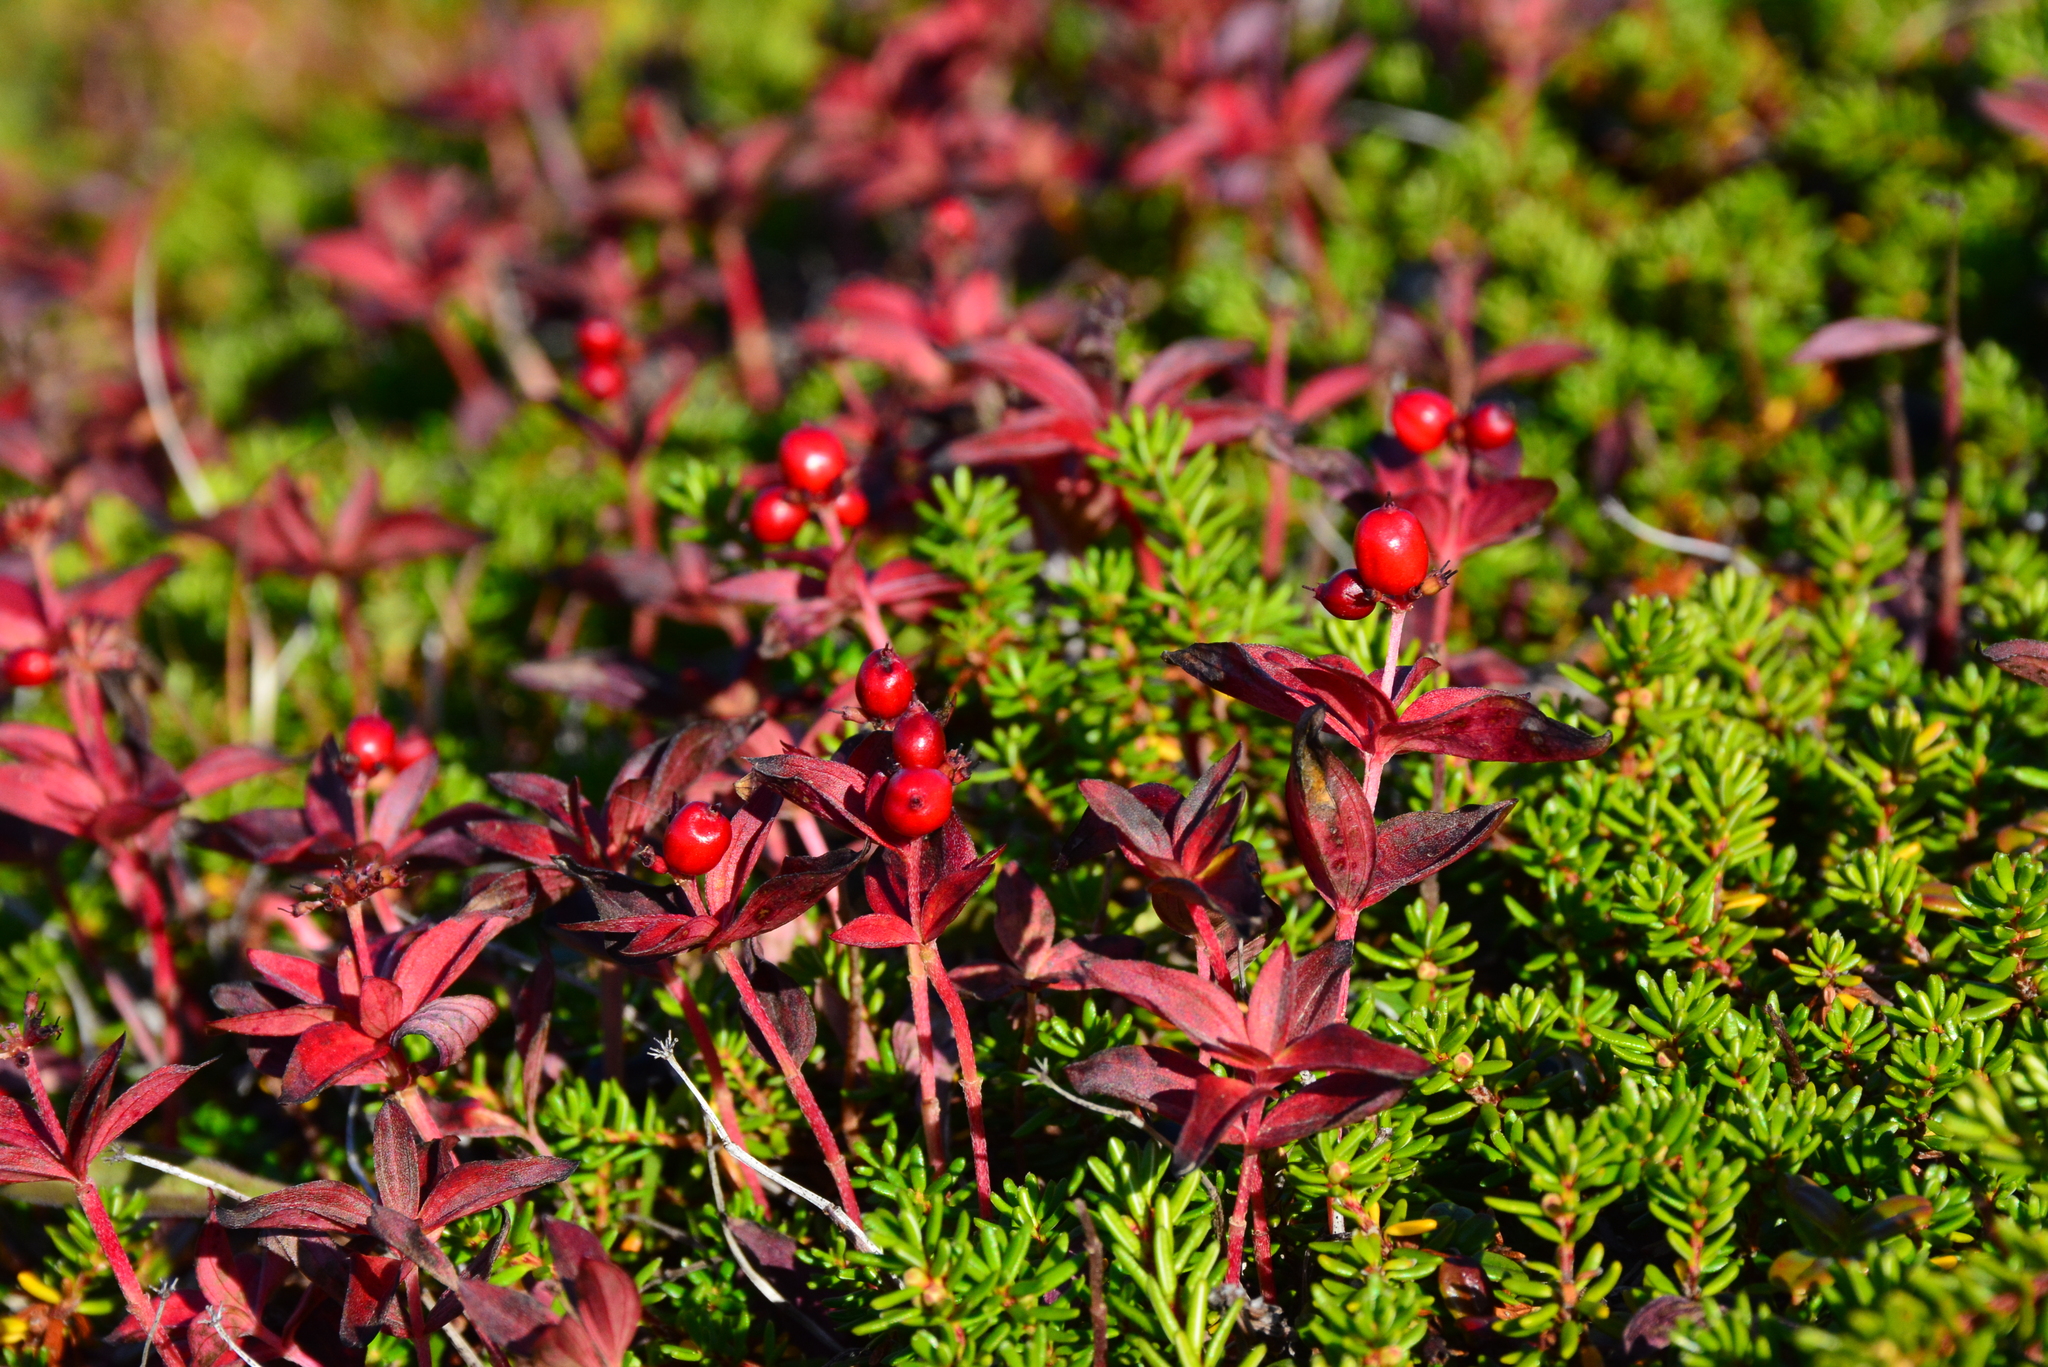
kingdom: Plantae
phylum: Tracheophyta
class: Magnoliopsida
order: Cornales
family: Cornaceae
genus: Cornus
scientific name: Cornus suecica
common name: Dwarf cornel
